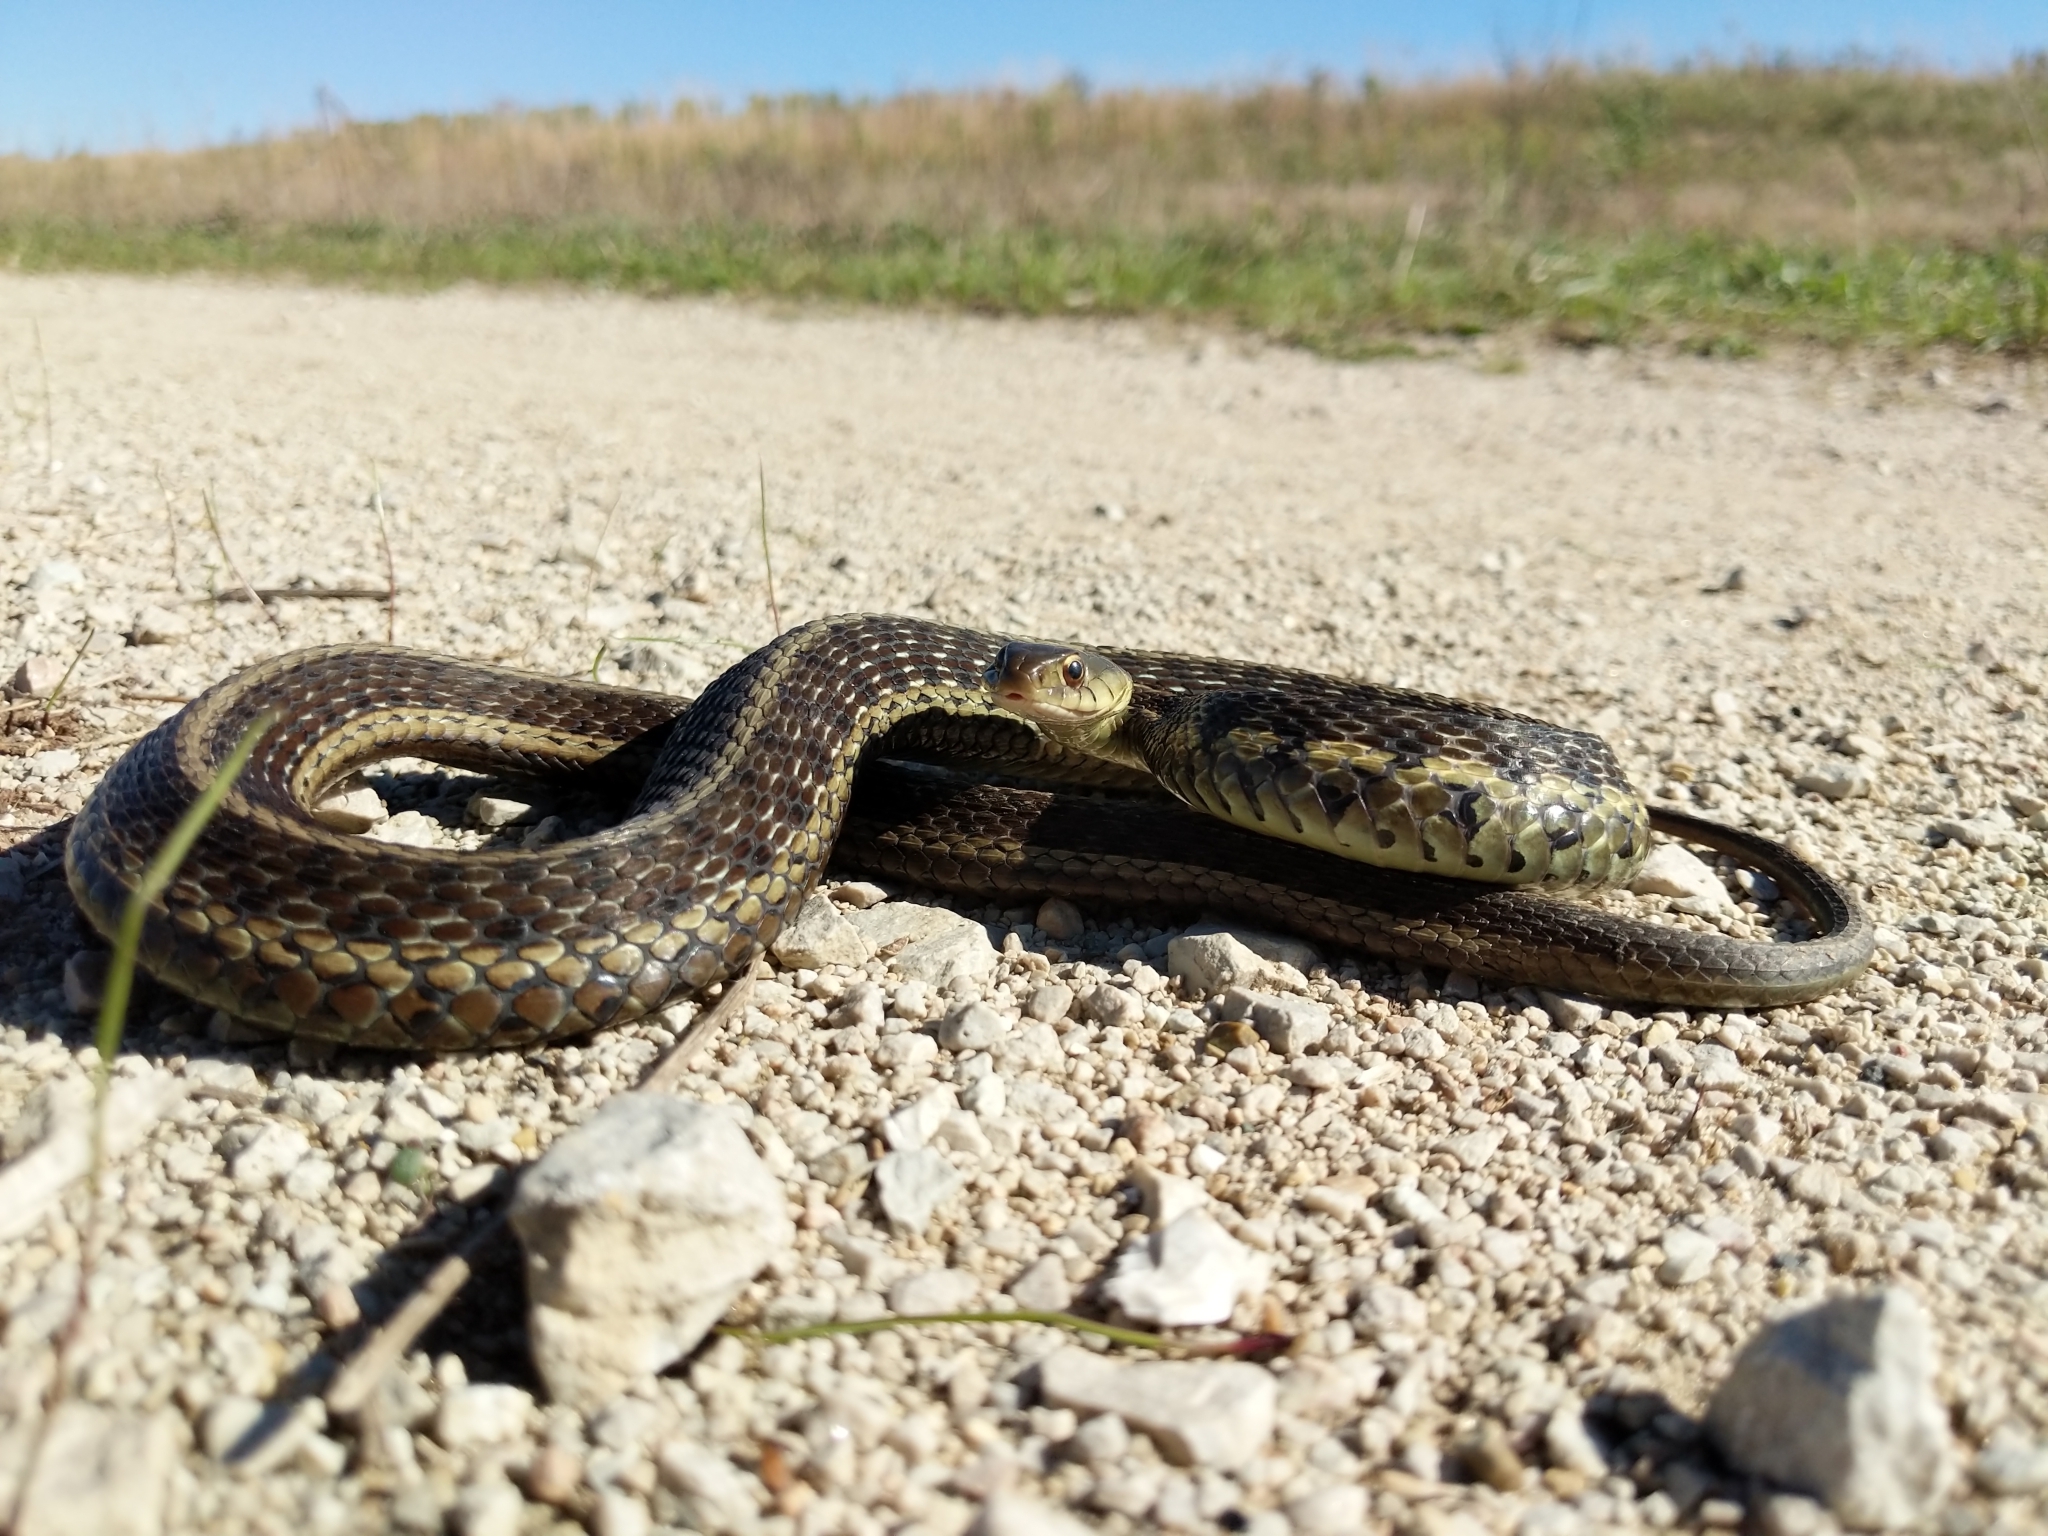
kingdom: Animalia
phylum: Chordata
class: Squamata
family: Colubridae
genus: Thamnophis
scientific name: Thamnophis sirtalis
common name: Common garter snake
